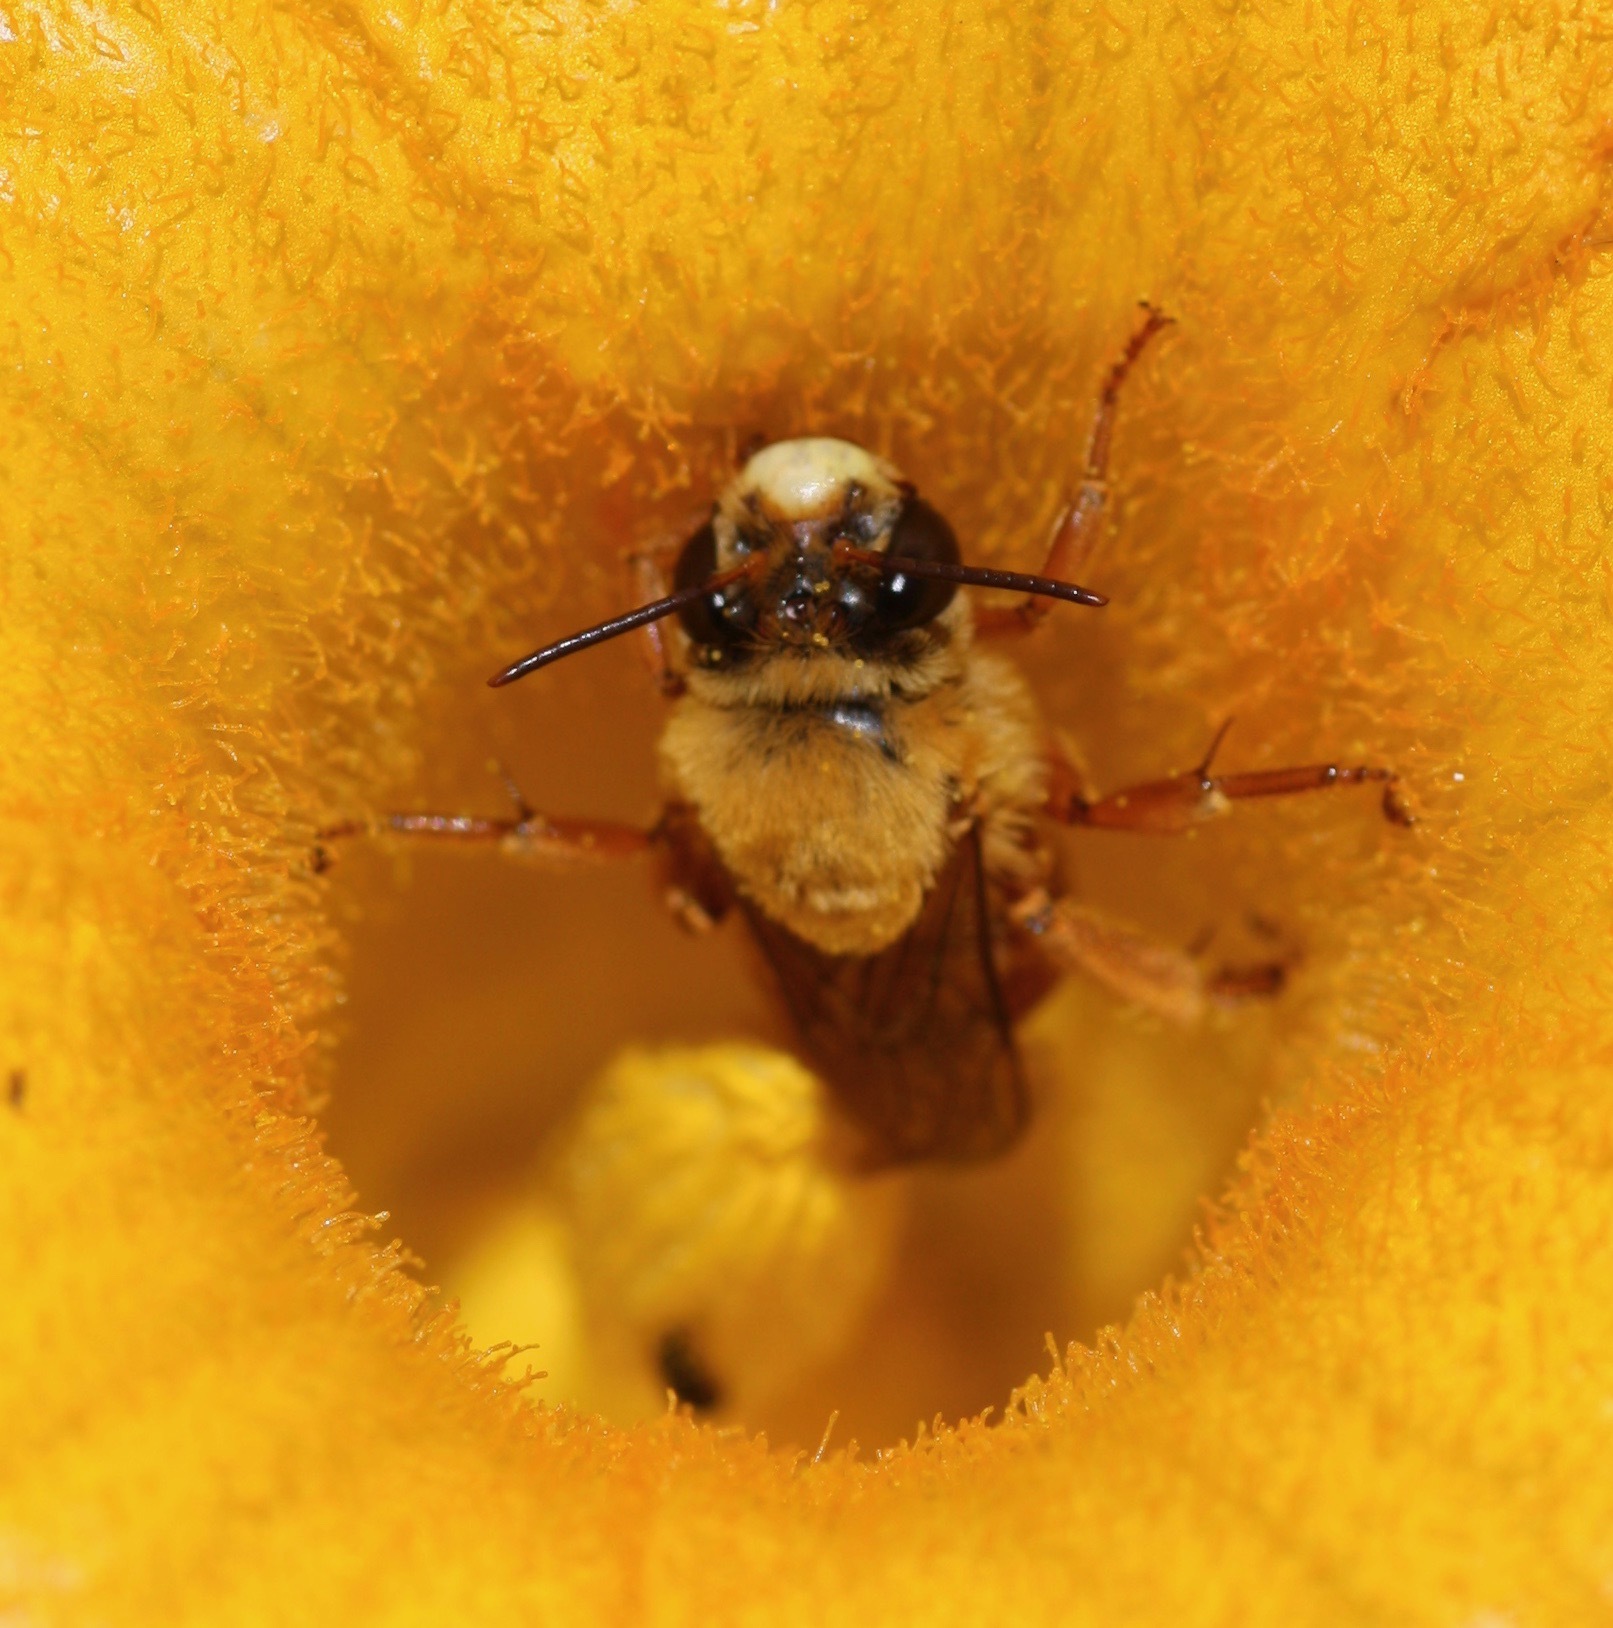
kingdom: Animalia
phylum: Arthropoda
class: Insecta
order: Hymenoptera
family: Apidae
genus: Xenoglossa
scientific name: Xenoglossa
